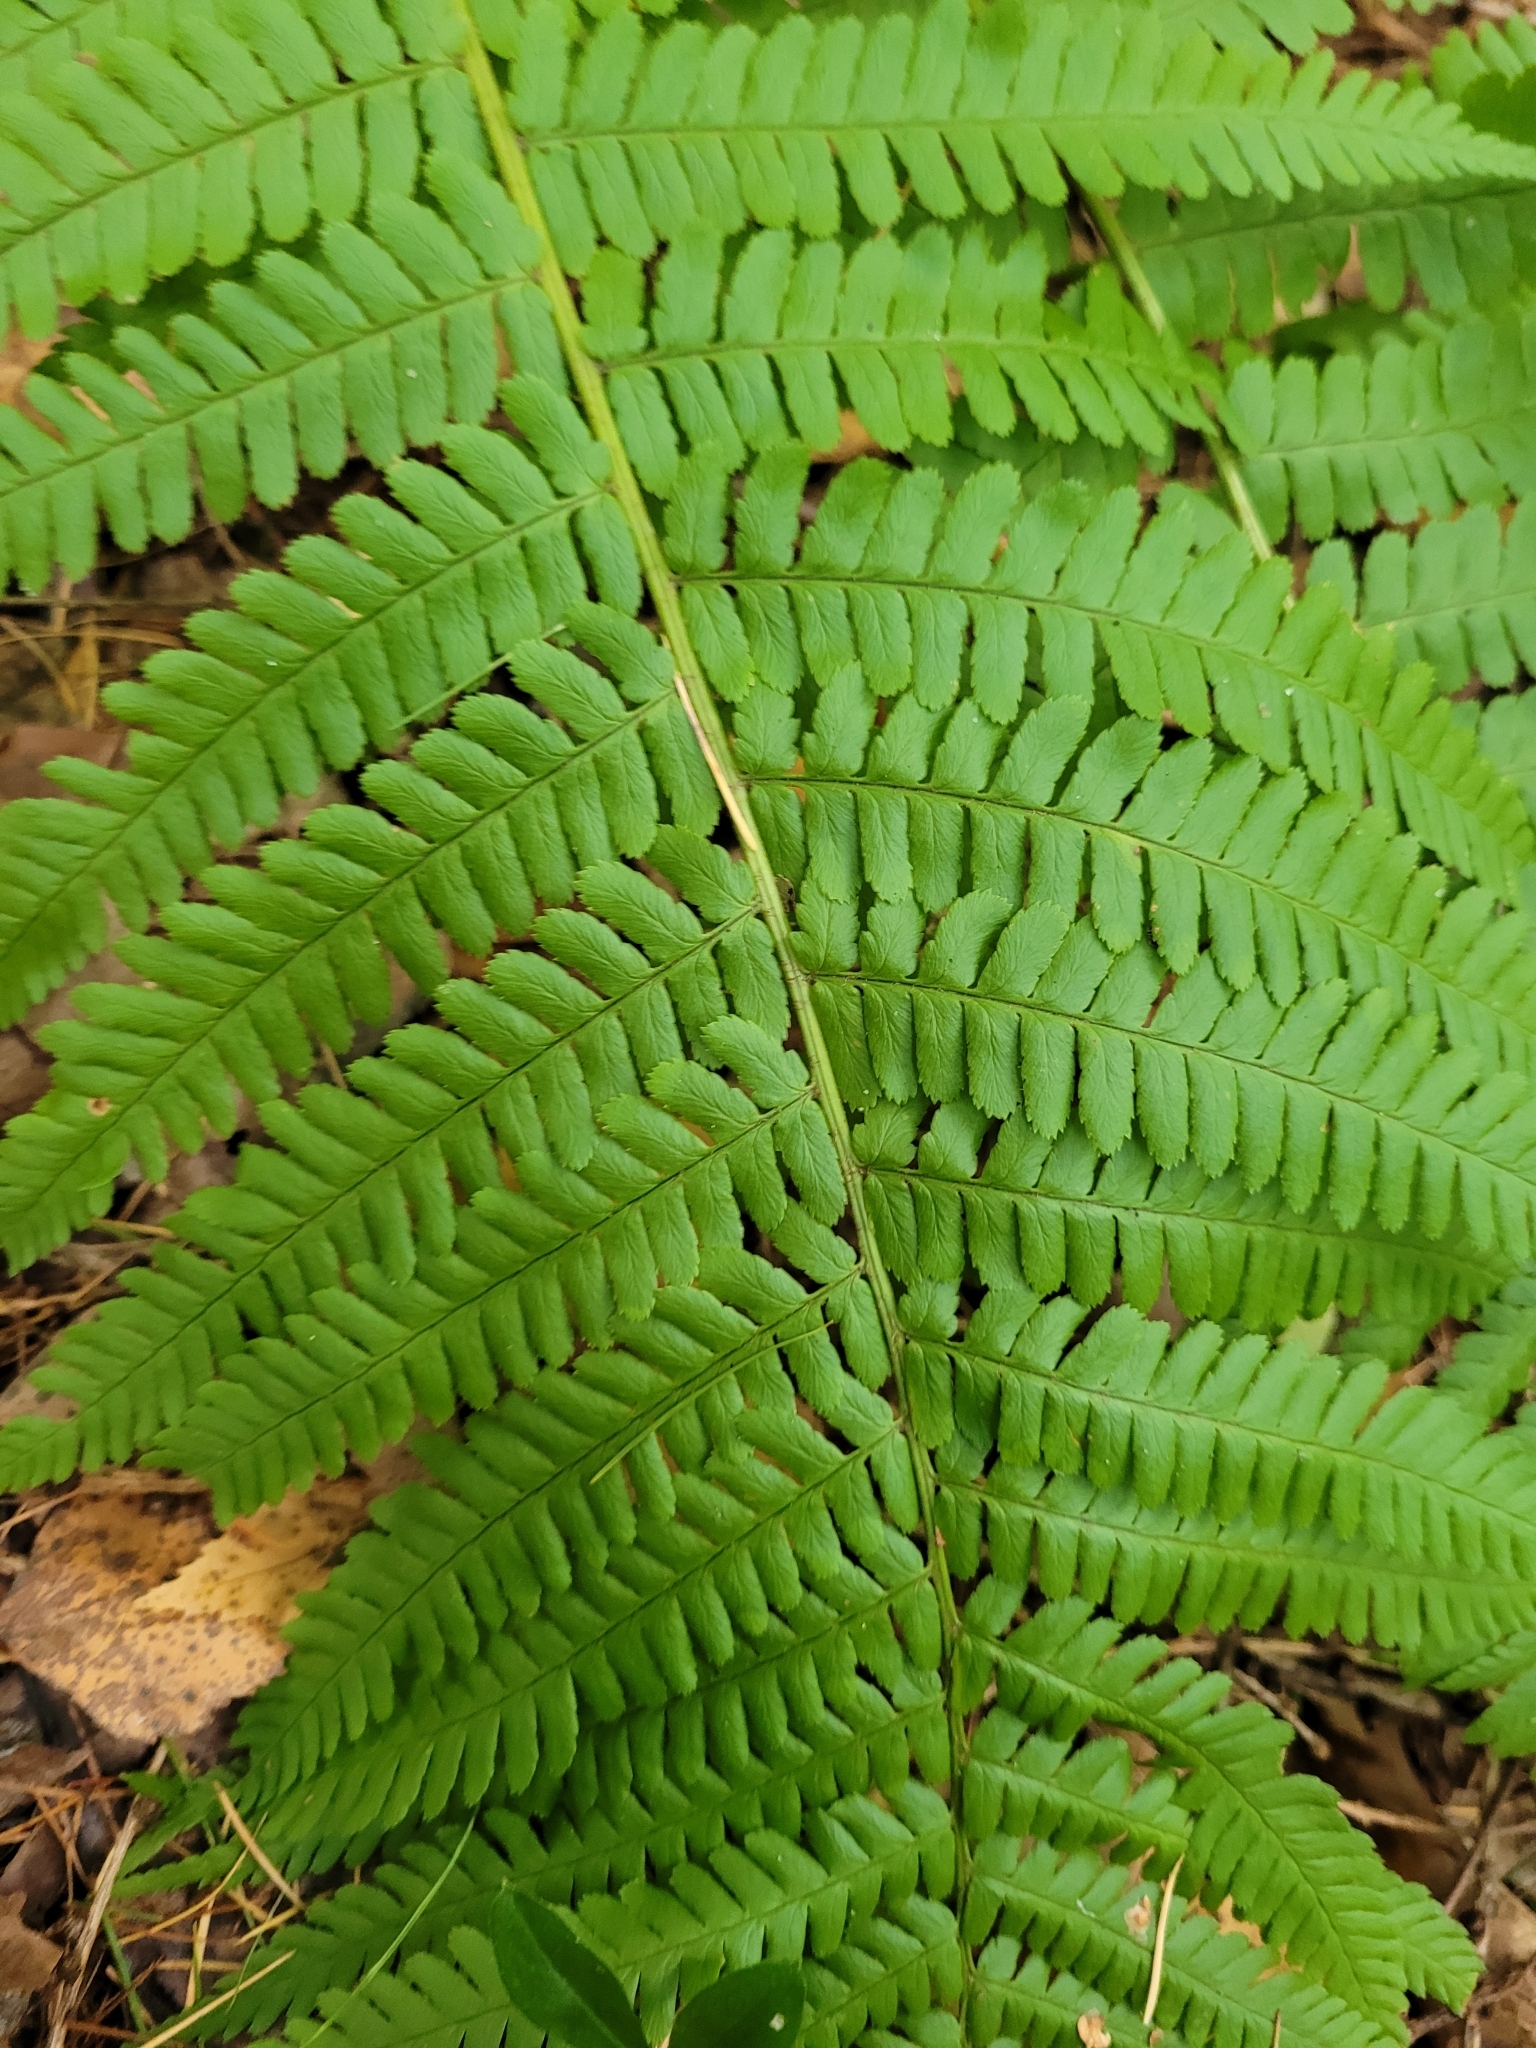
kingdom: Plantae
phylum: Tracheophyta
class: Polypodiopsida
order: Polypodiales
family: Dryopteridaceae
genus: Dryopteris
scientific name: Dryopteris filix-mas
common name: Male fern
